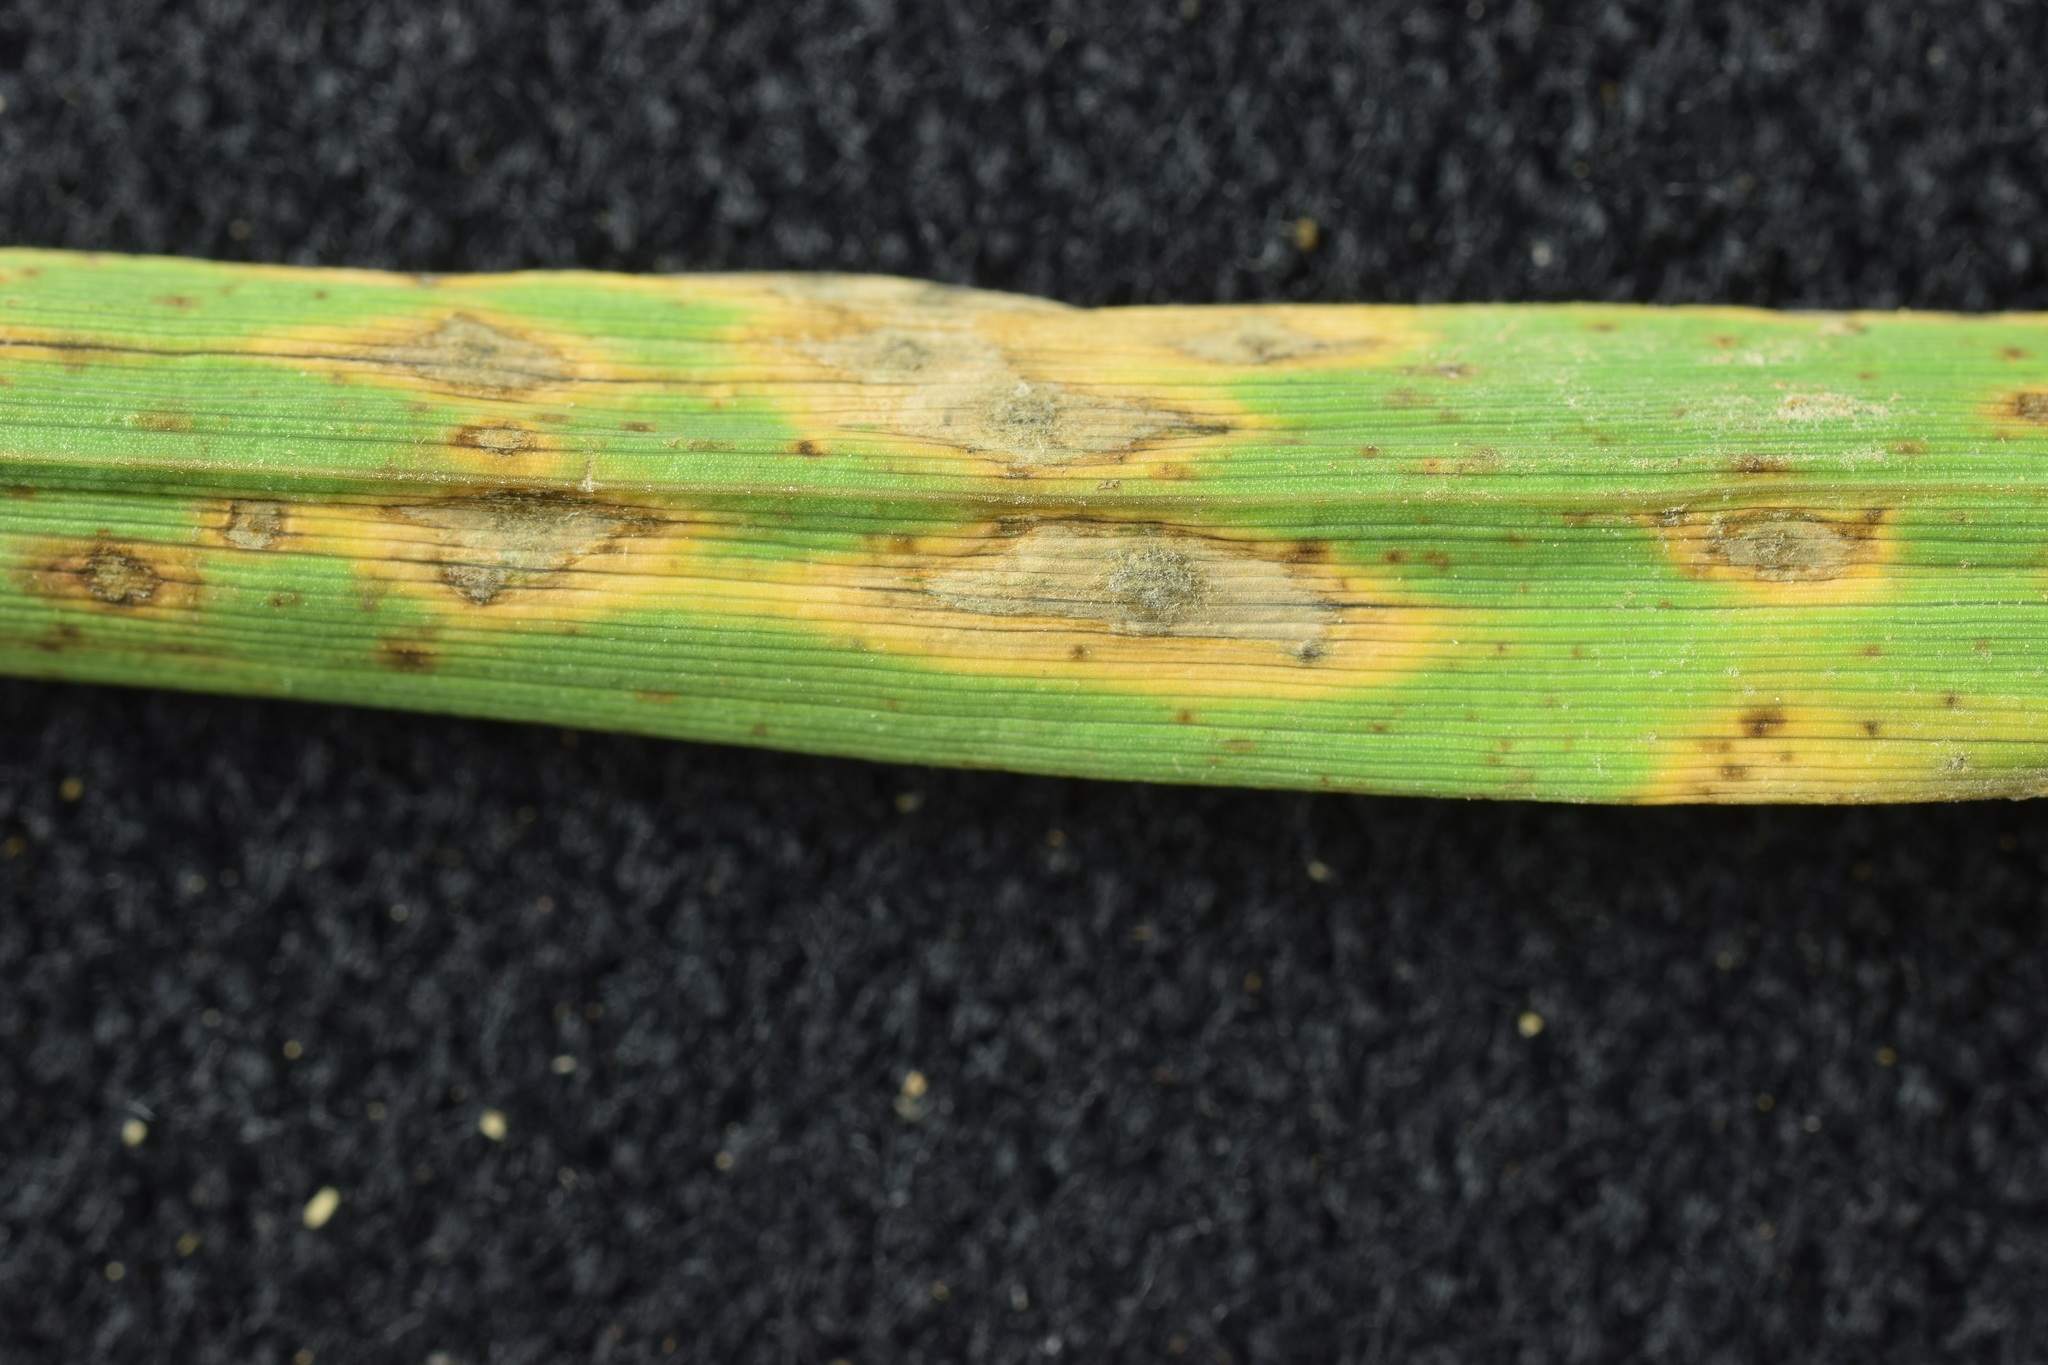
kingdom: Fungi
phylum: Ascomycota
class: Sordariomycetes
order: Magnaporthales
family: Pyriculariaceae
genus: Pyricularia
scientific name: Pyricularia oryzae
